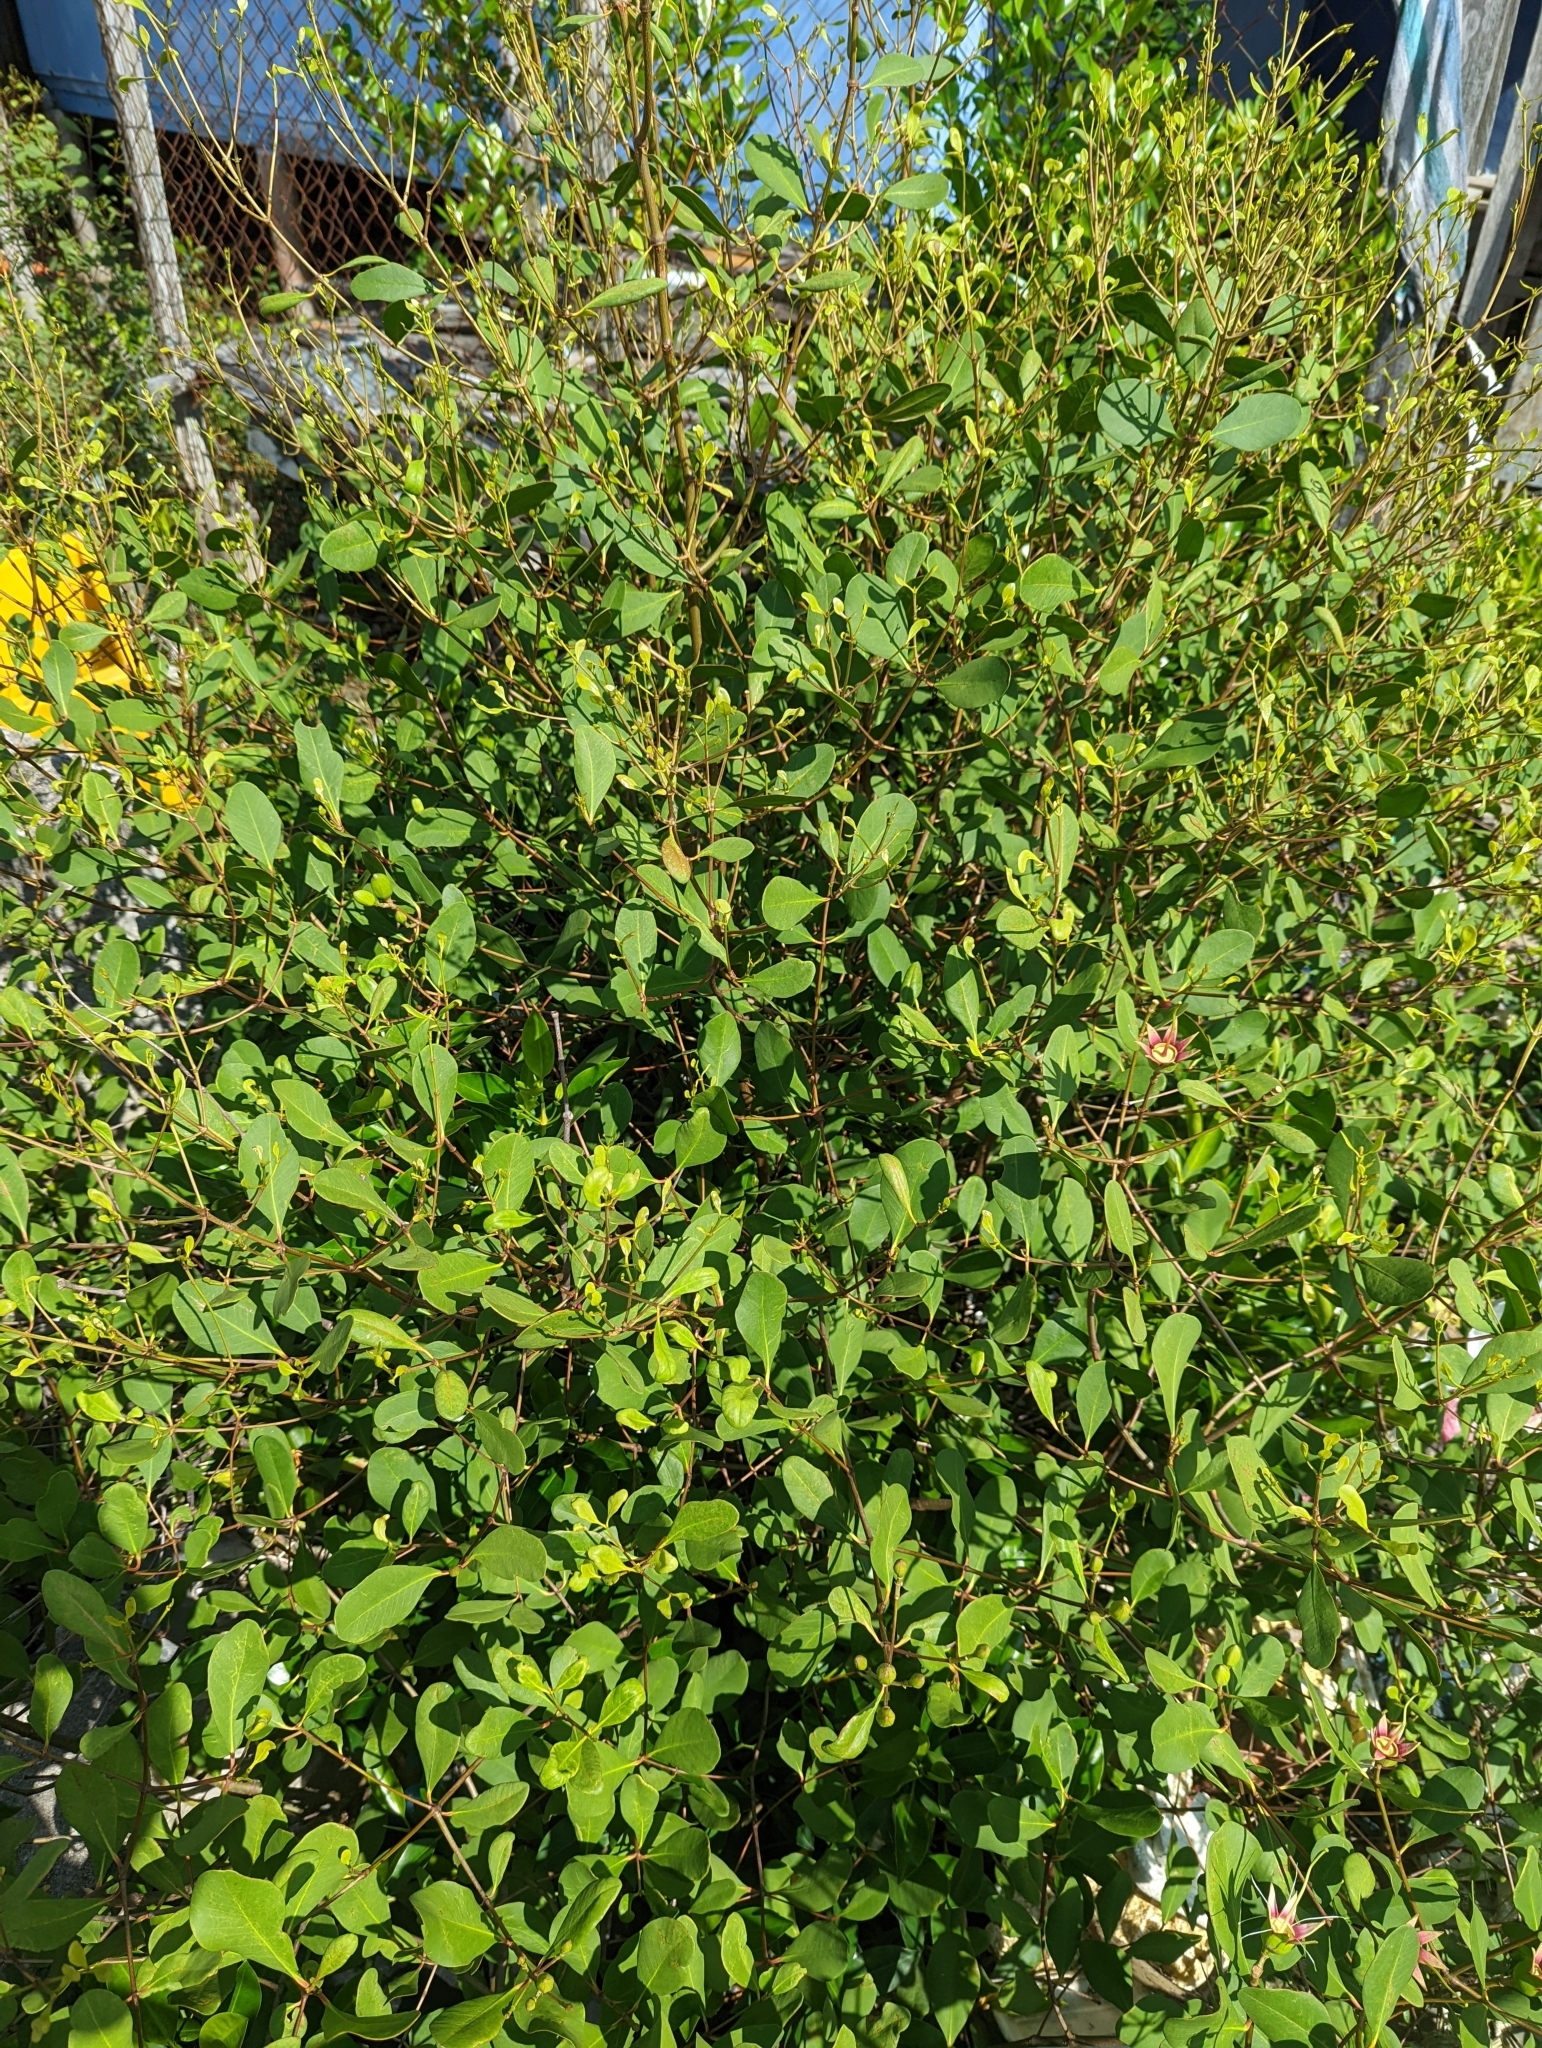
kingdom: Plantae
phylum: Tracheophyta
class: Magnoliopsida
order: Myrtales
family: Lythraceae
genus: Sonneratia
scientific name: Sonneratia alba
